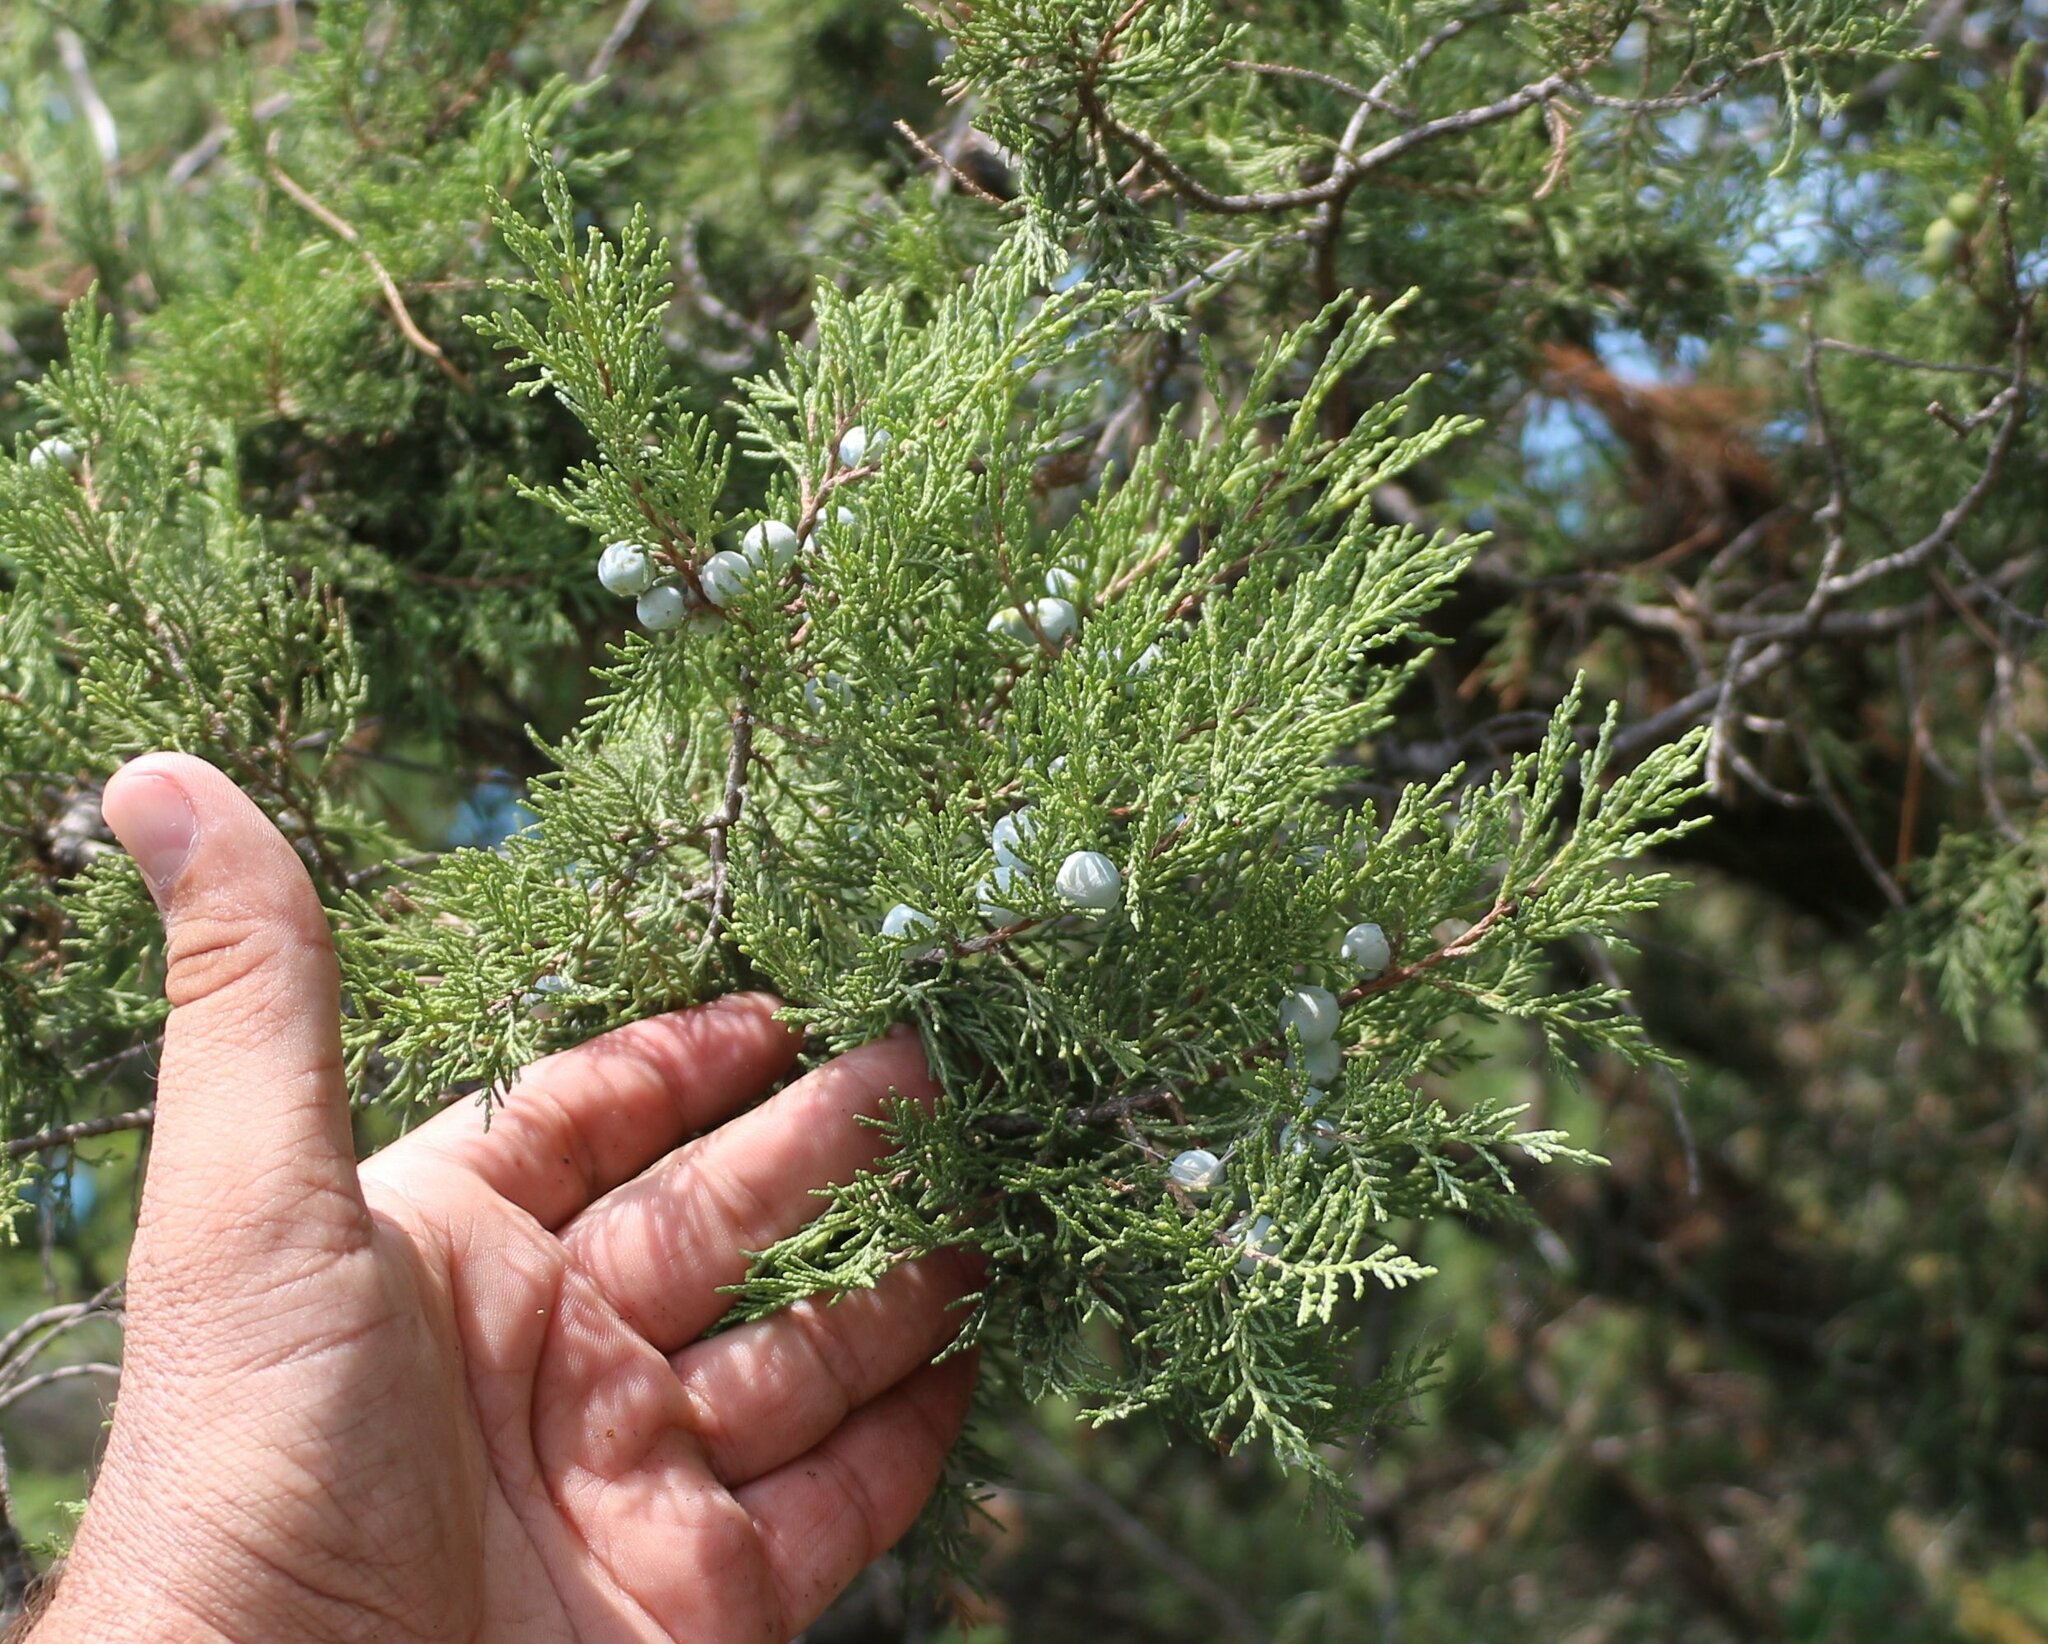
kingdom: Plantae
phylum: Tracheophyta
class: Pinopsida
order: Pinales
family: Cupressaceae
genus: Juniperus
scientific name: Juniperus excelsa
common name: Crimean juniper
